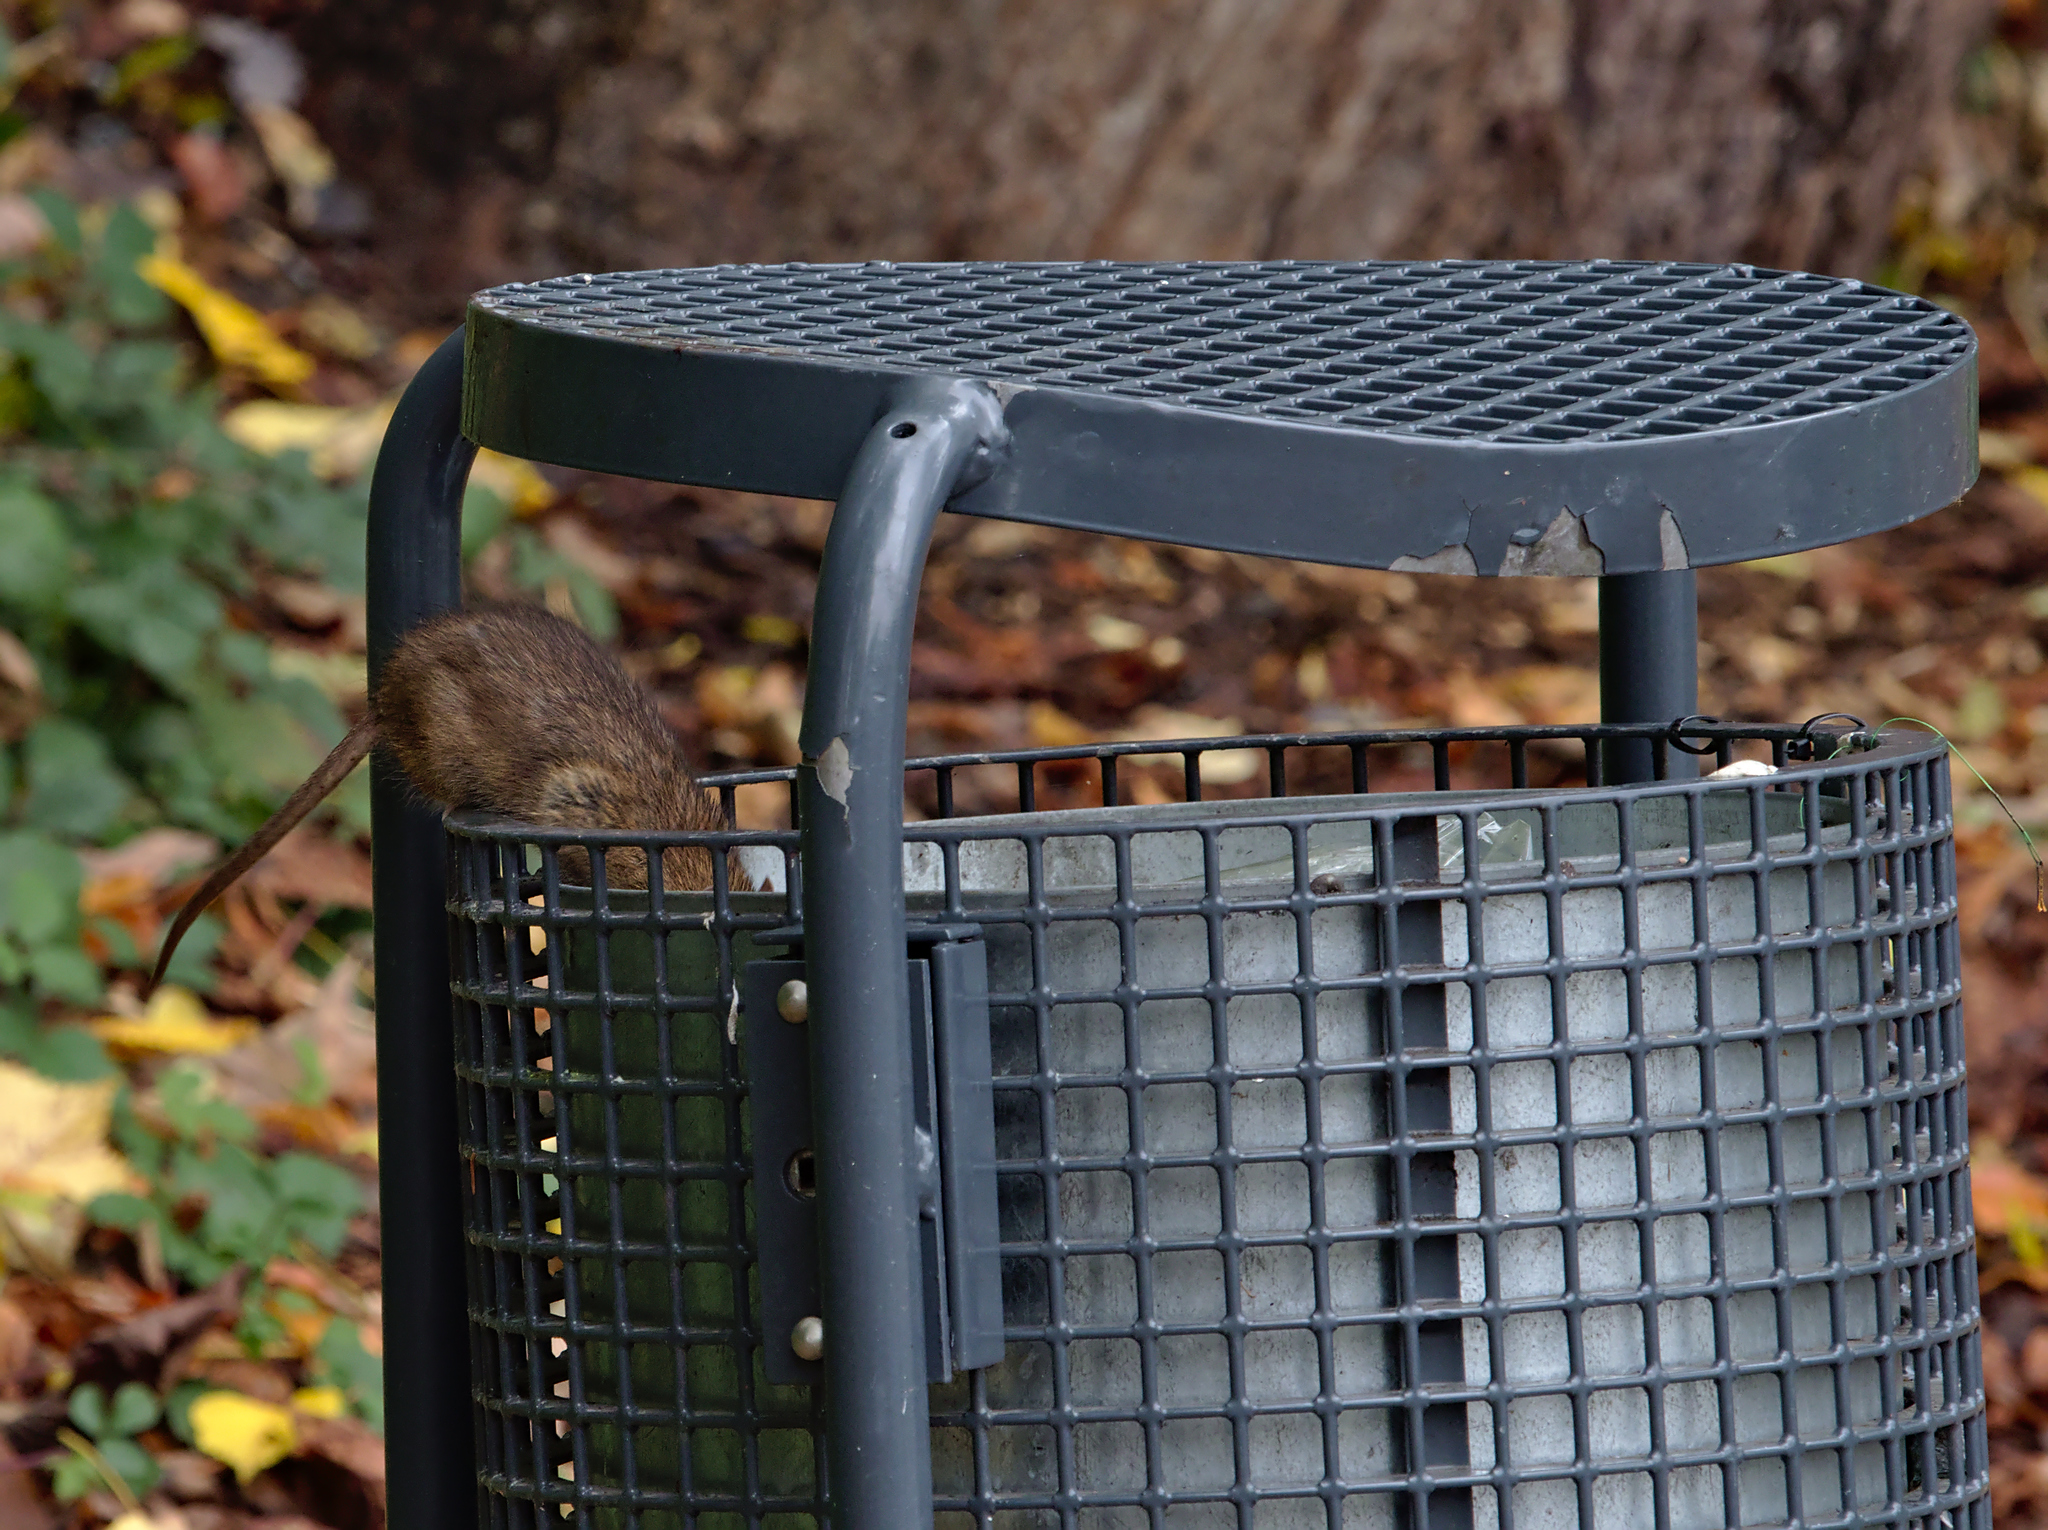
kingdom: Animalia
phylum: Chordata
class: Mammalia
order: Rodentia
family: Muridae
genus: Rattus
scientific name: Rattus norvegicus
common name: Brown rat
